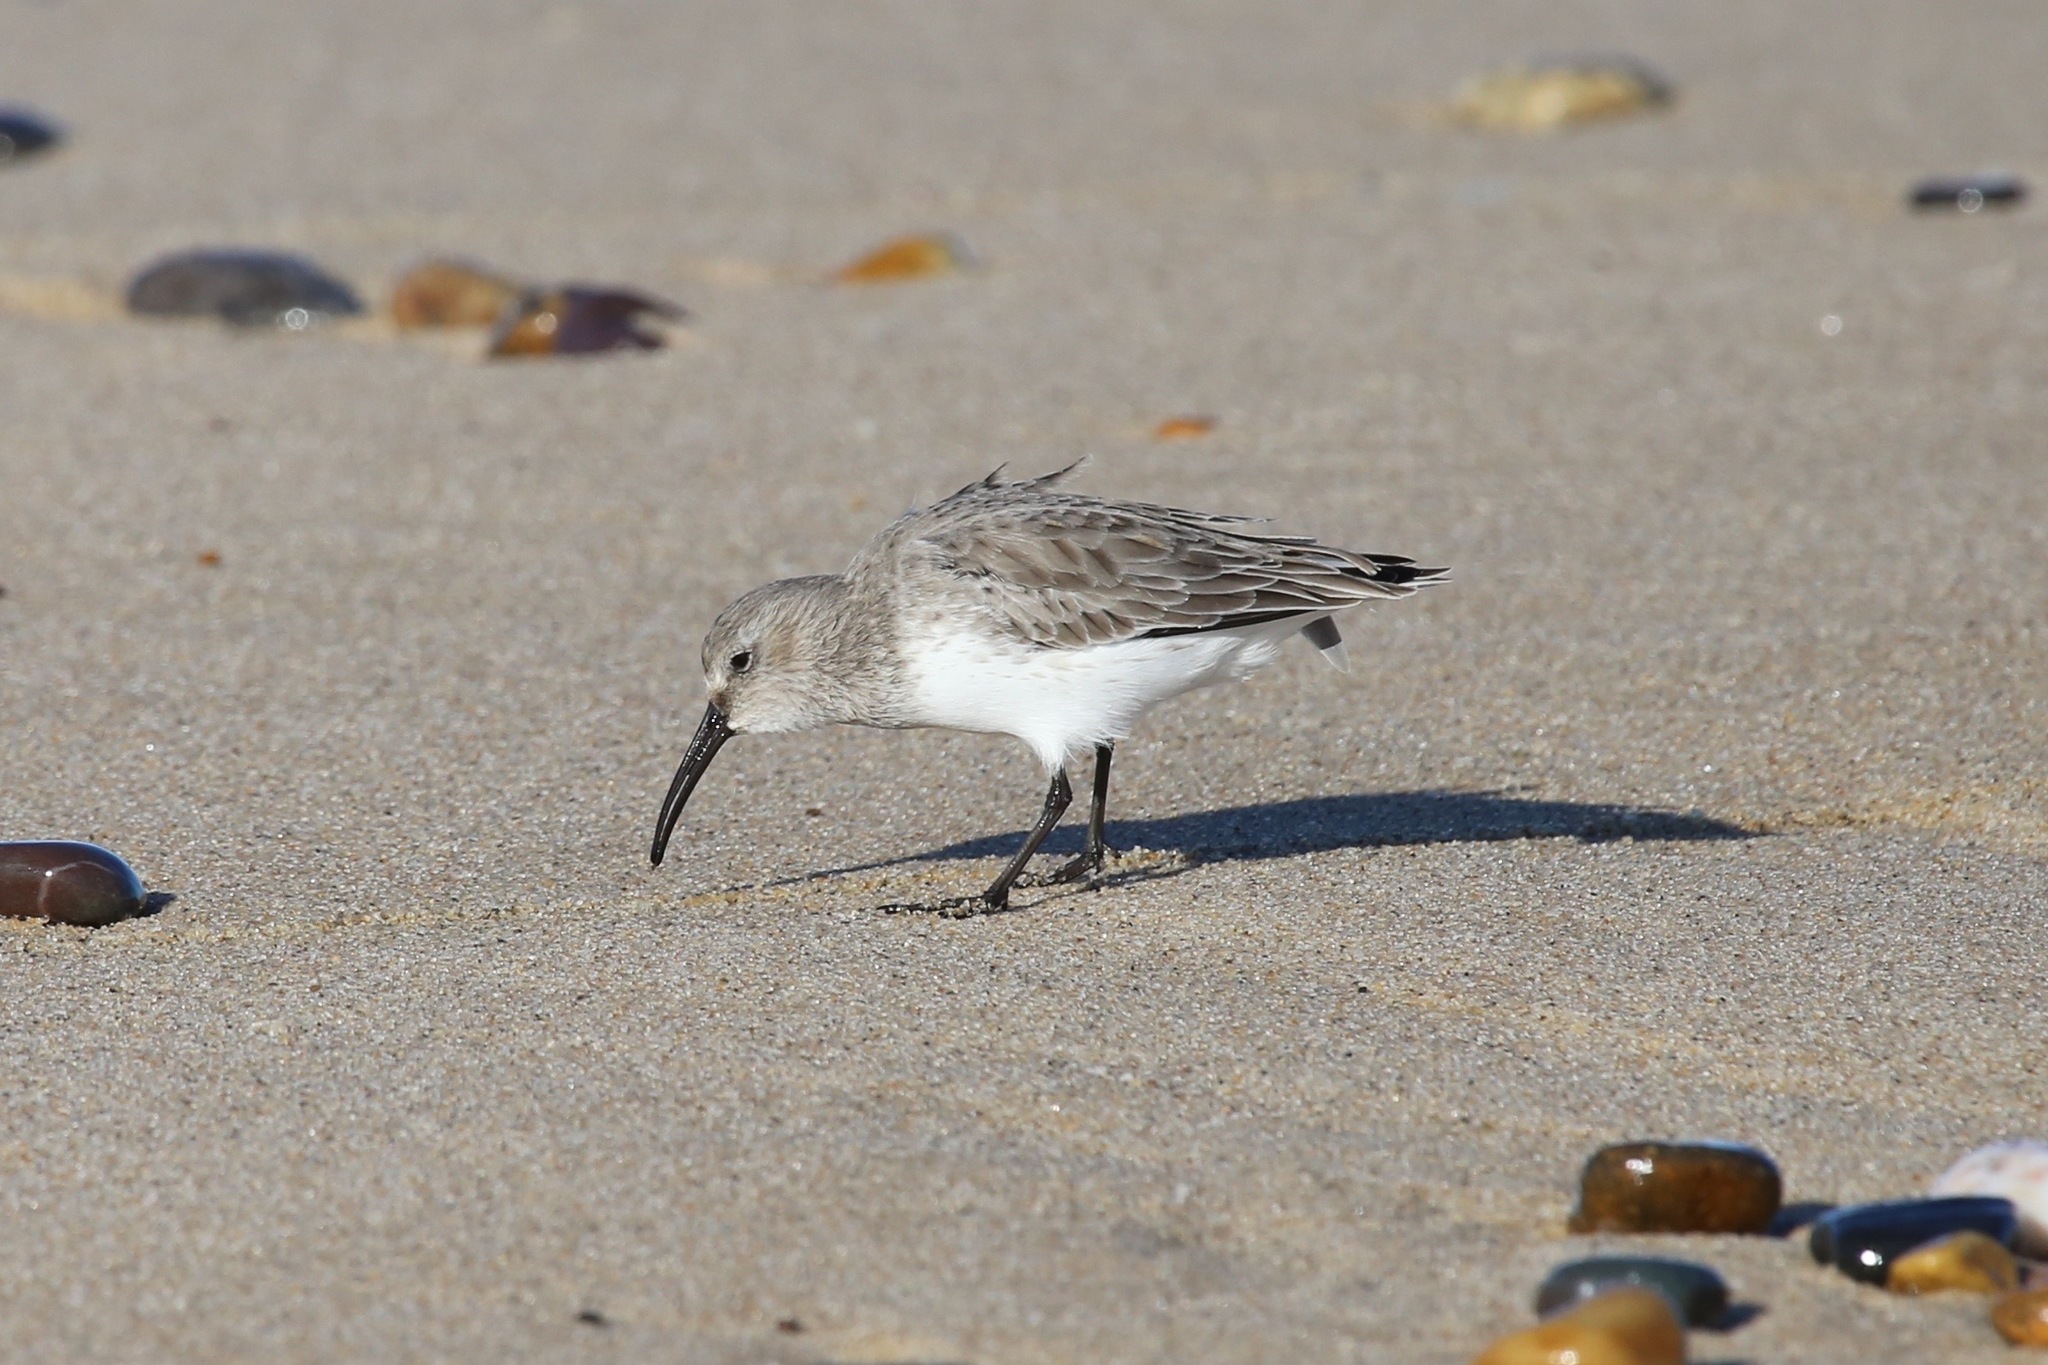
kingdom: Animalia
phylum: Chordata
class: Aves
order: Charadriiformes
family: Scolopacidae
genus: Calidris
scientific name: Calidris alpina
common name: Dunlin
